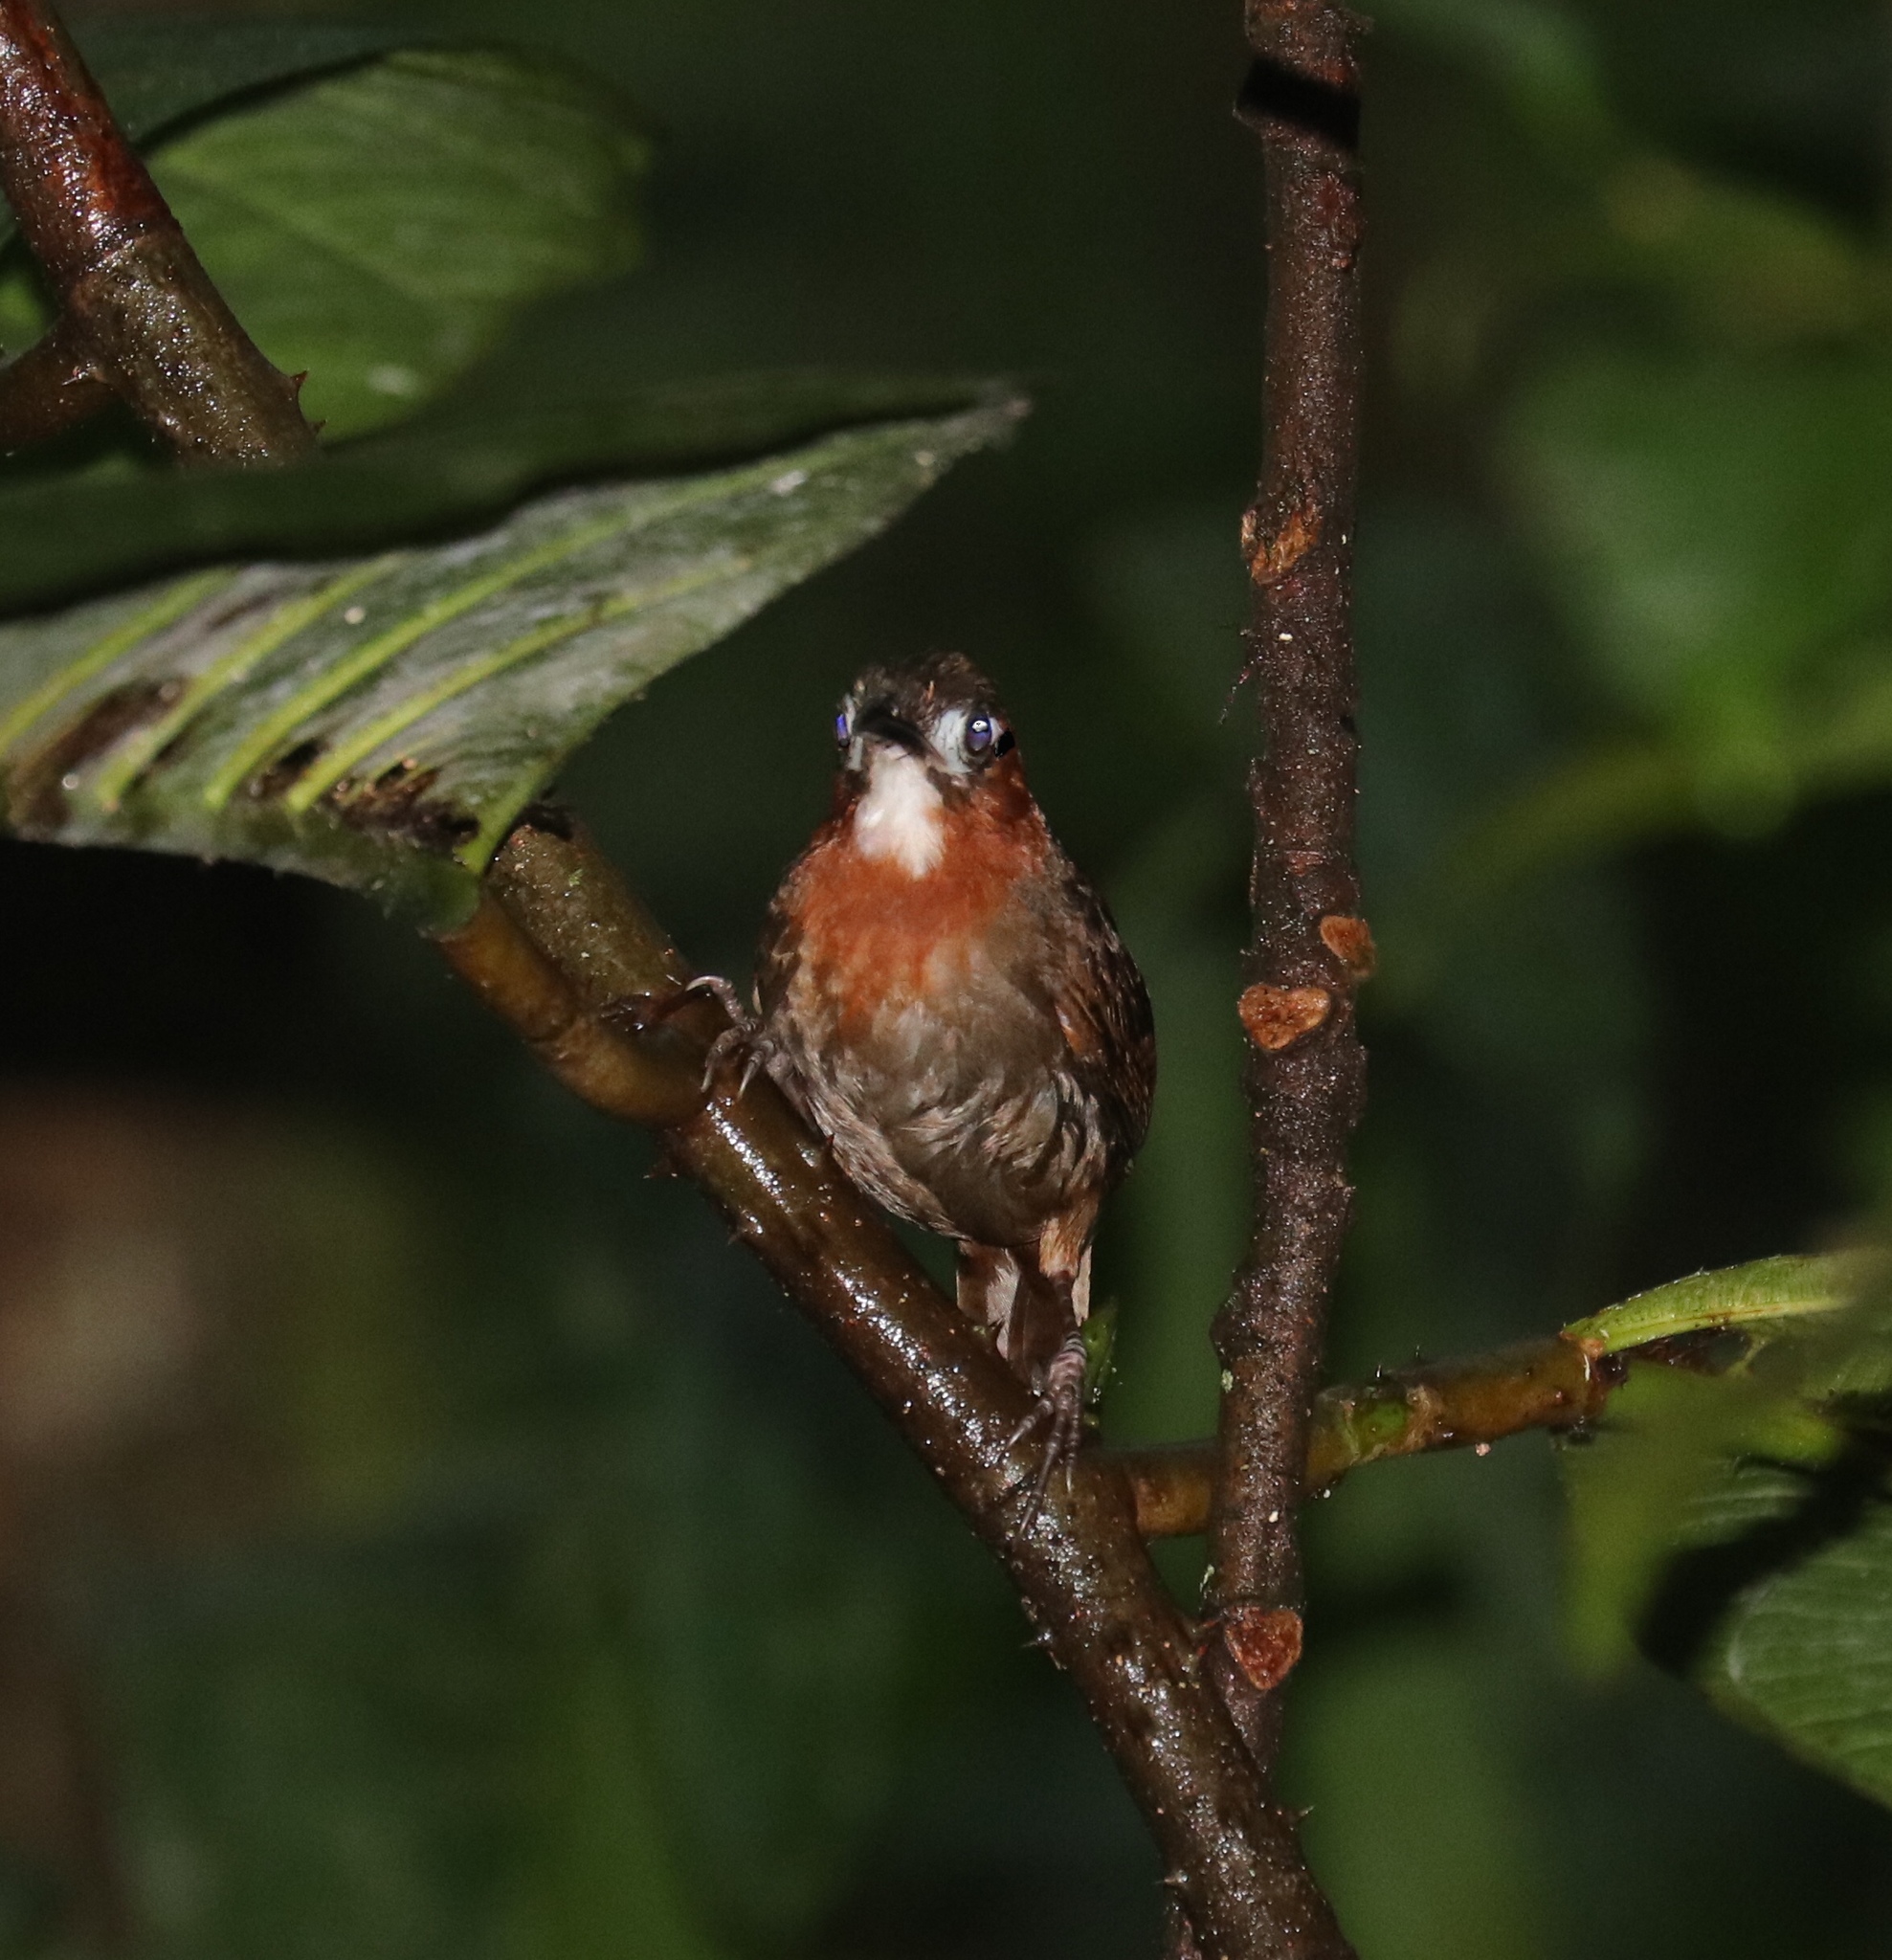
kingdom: Animalia
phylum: Chordata
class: Aves
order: Passeriformes
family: Troglodytidae
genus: Cyphorhinus
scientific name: Cyphorhinus phaeocephalus
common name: Song wren
